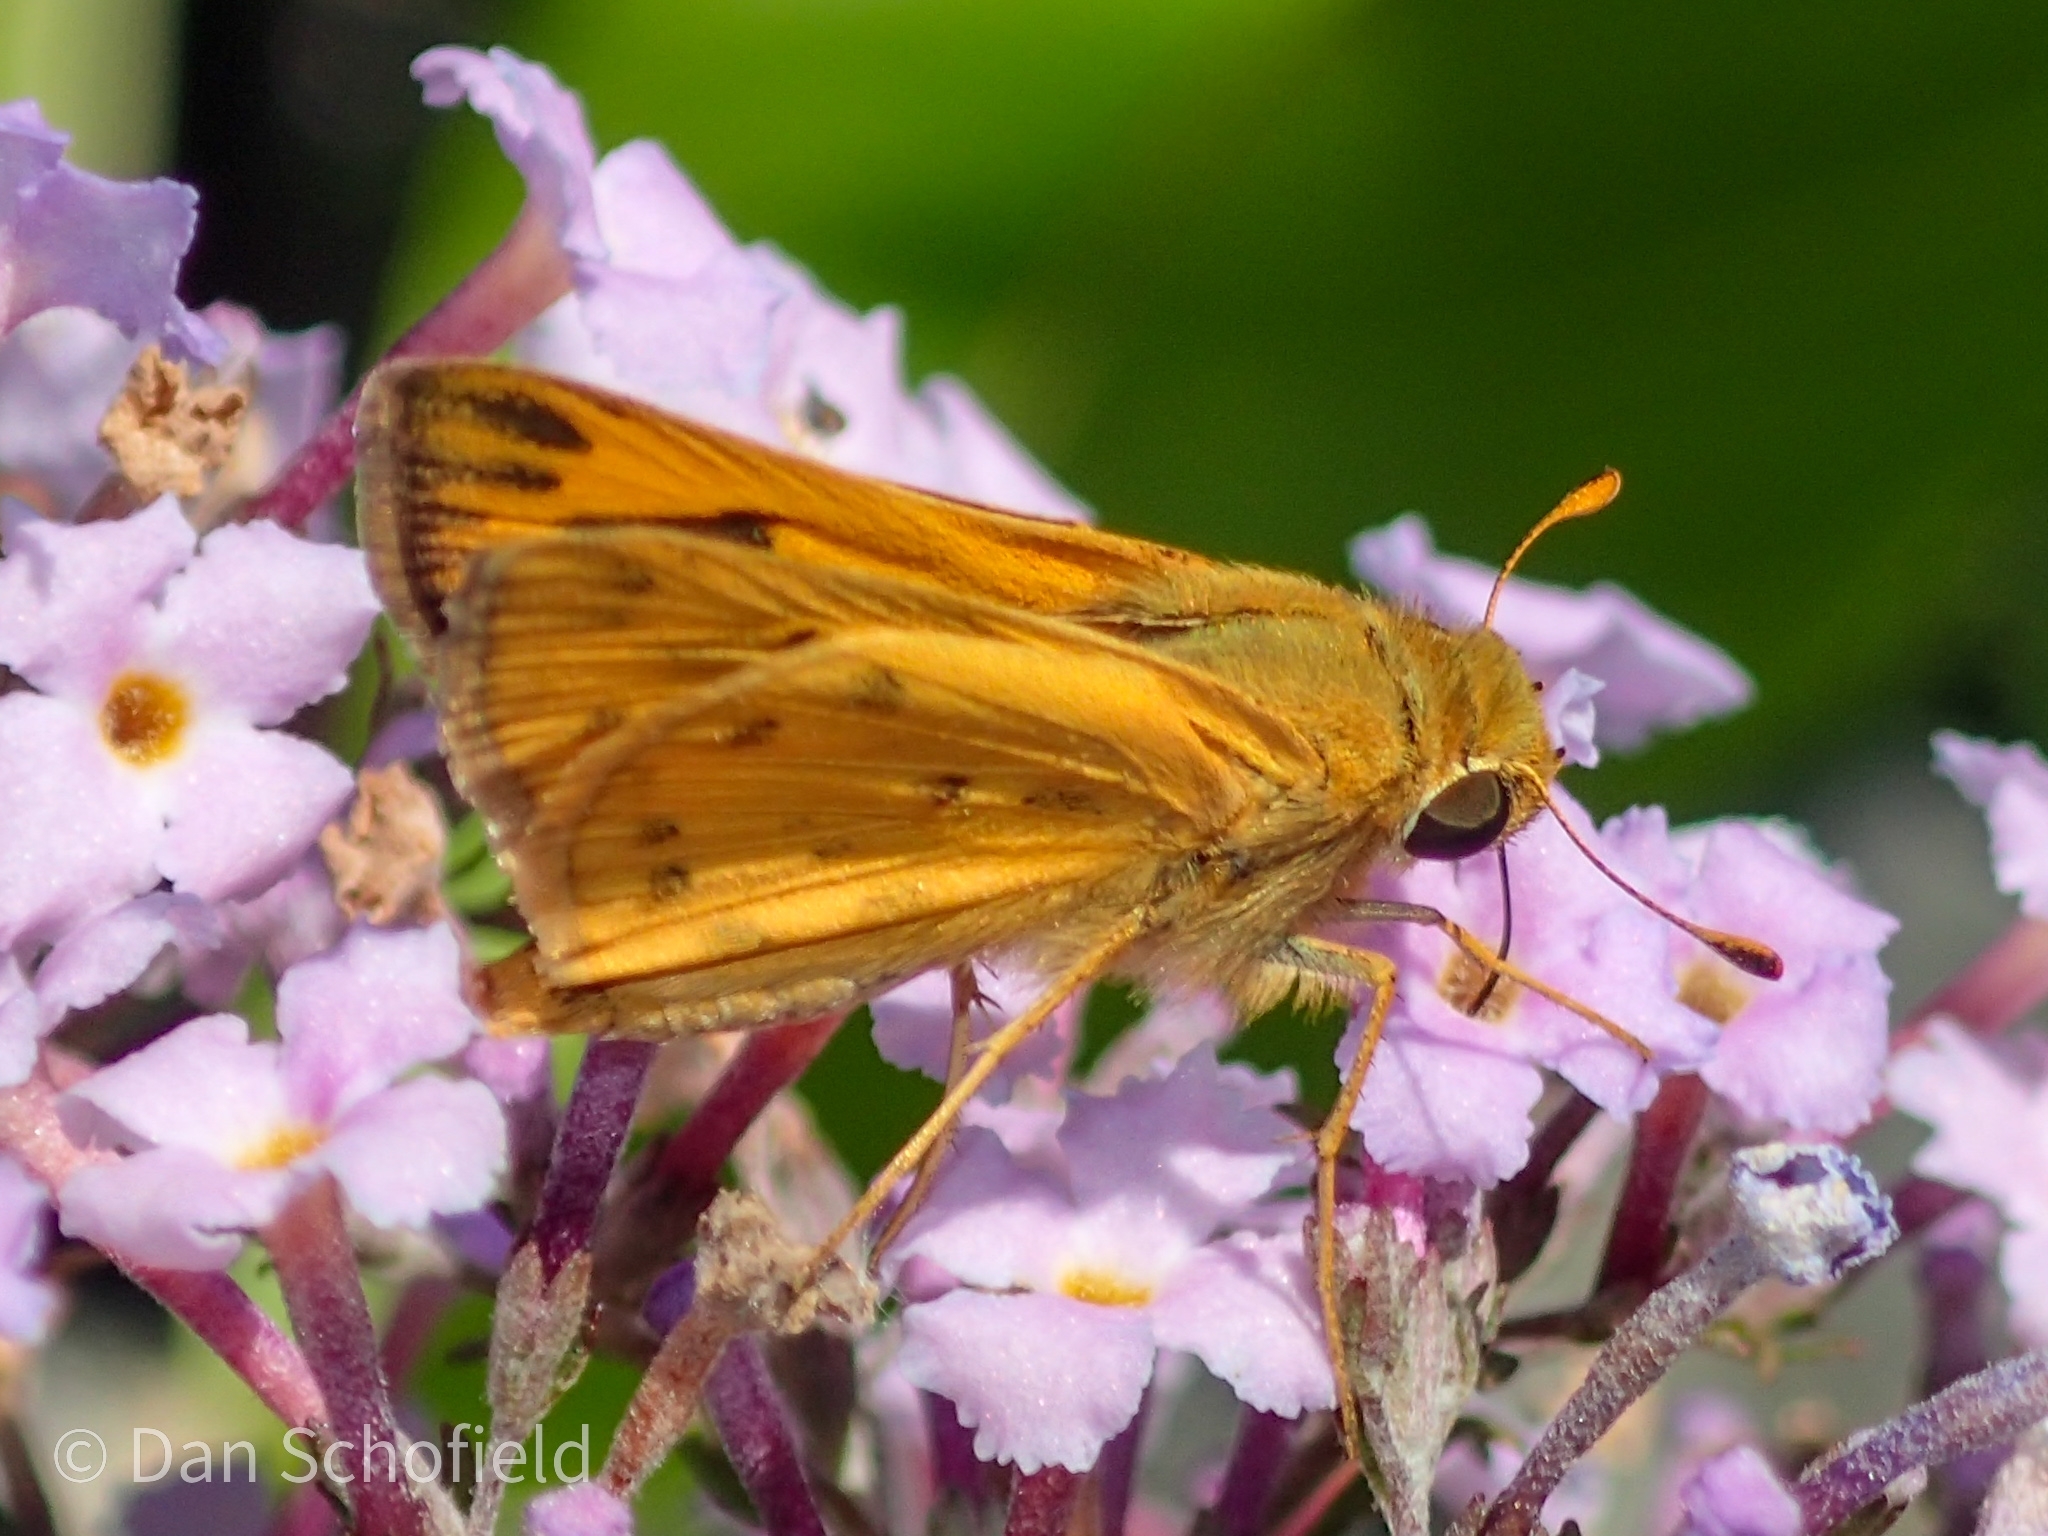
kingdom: Animalia
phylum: Arthropoda
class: Insecta
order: Lepidoptera
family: Hesperiidae
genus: Hylephila
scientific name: Hylephila phyleus
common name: Fiery skipper
